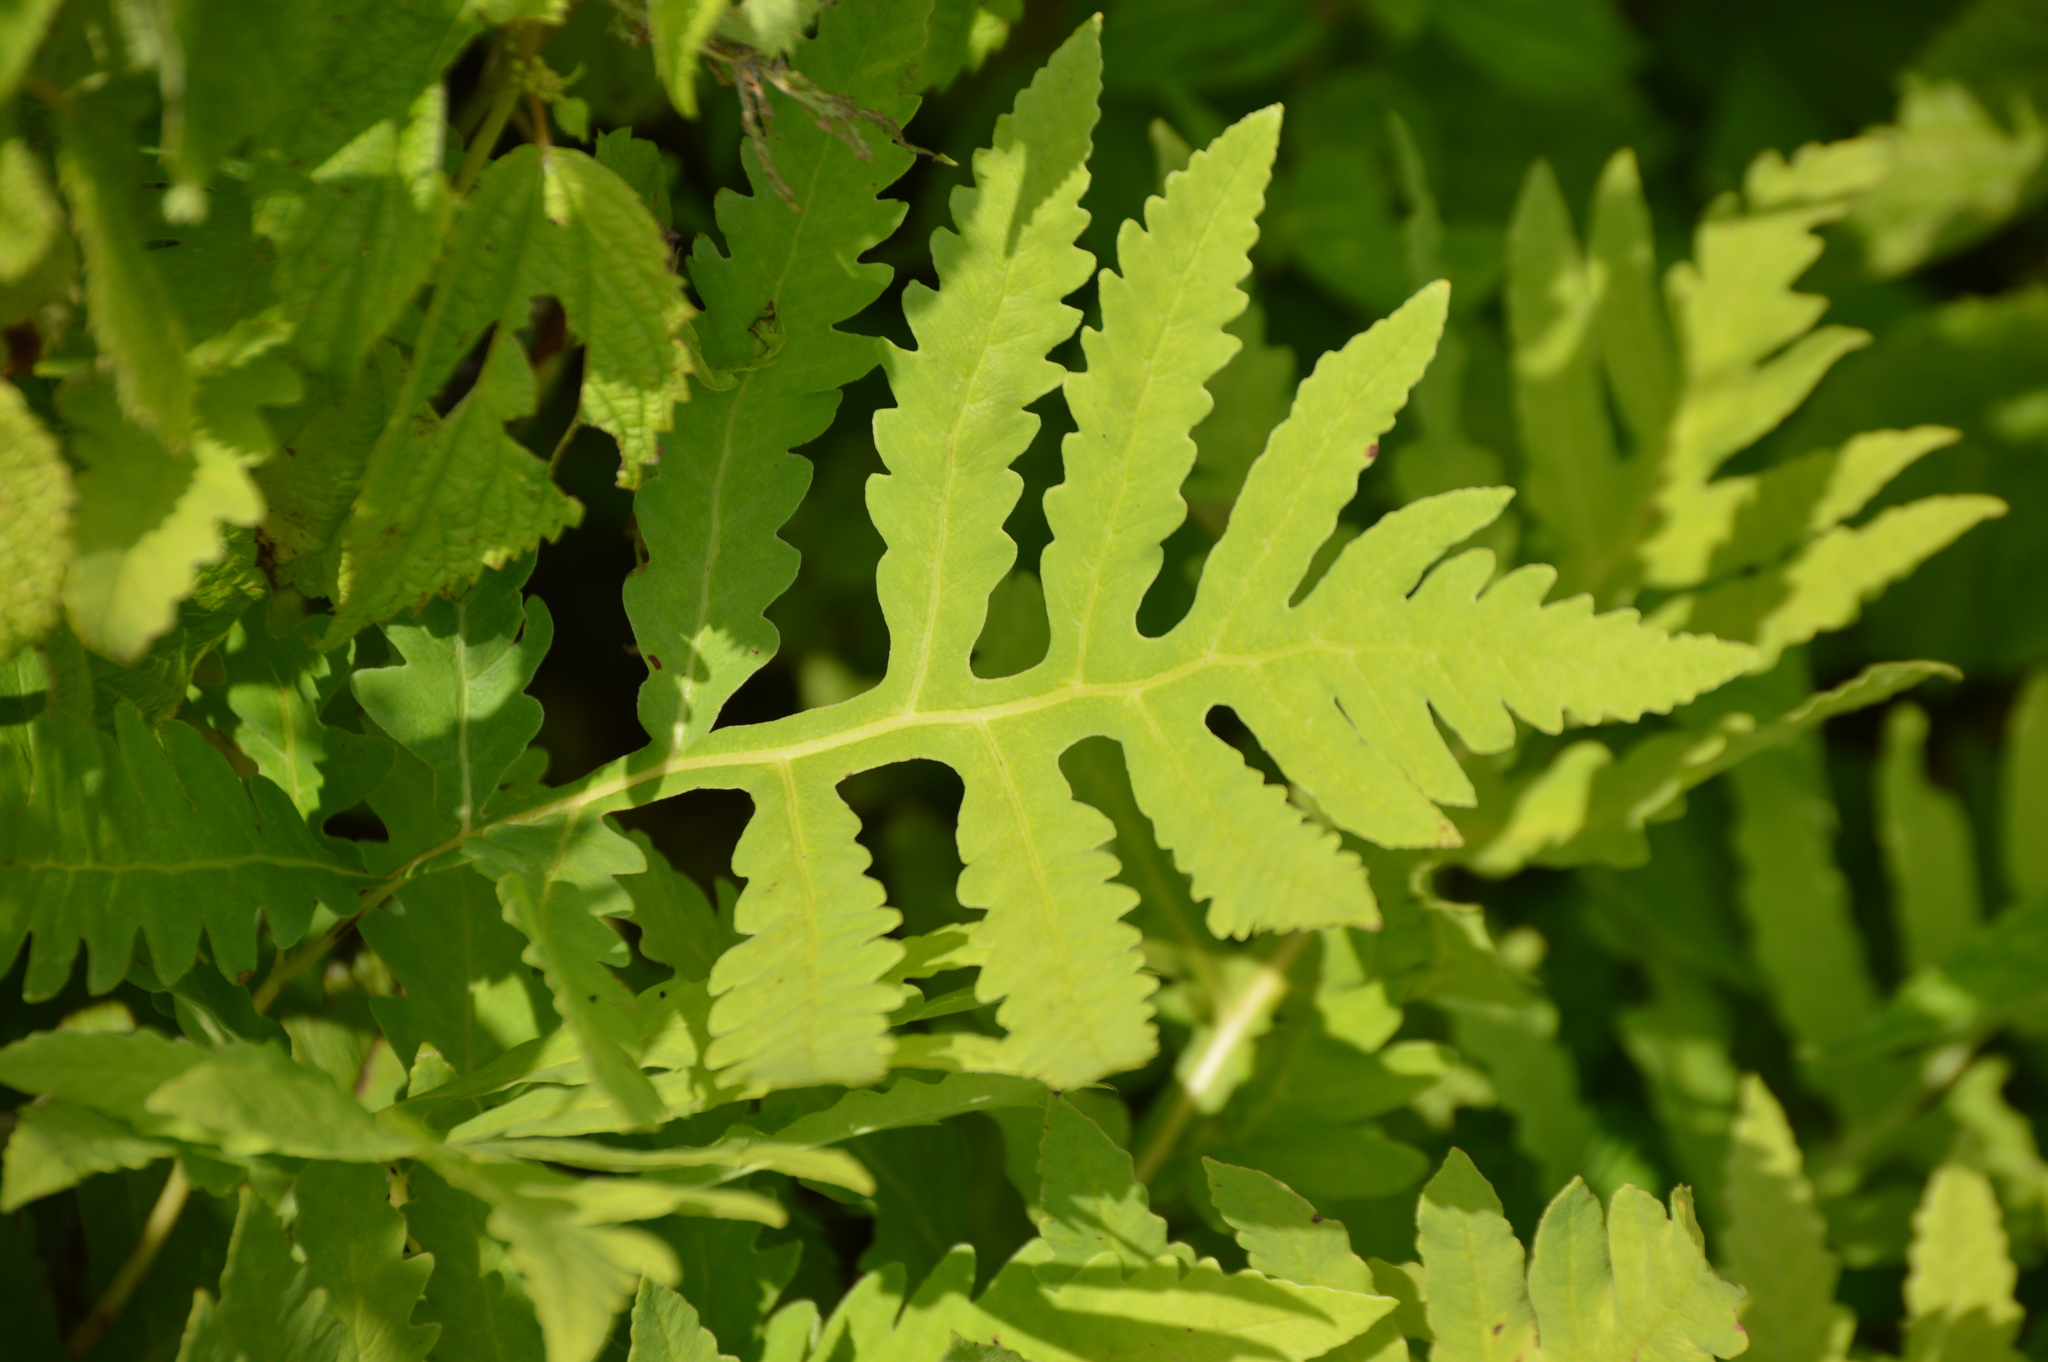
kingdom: Plantae
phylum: Tracheophyta
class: Polypodiopsida
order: Polypodiales
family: Onocleaceae
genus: Onoclea
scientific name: Onoclea sensibilis
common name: Sensitive fern
